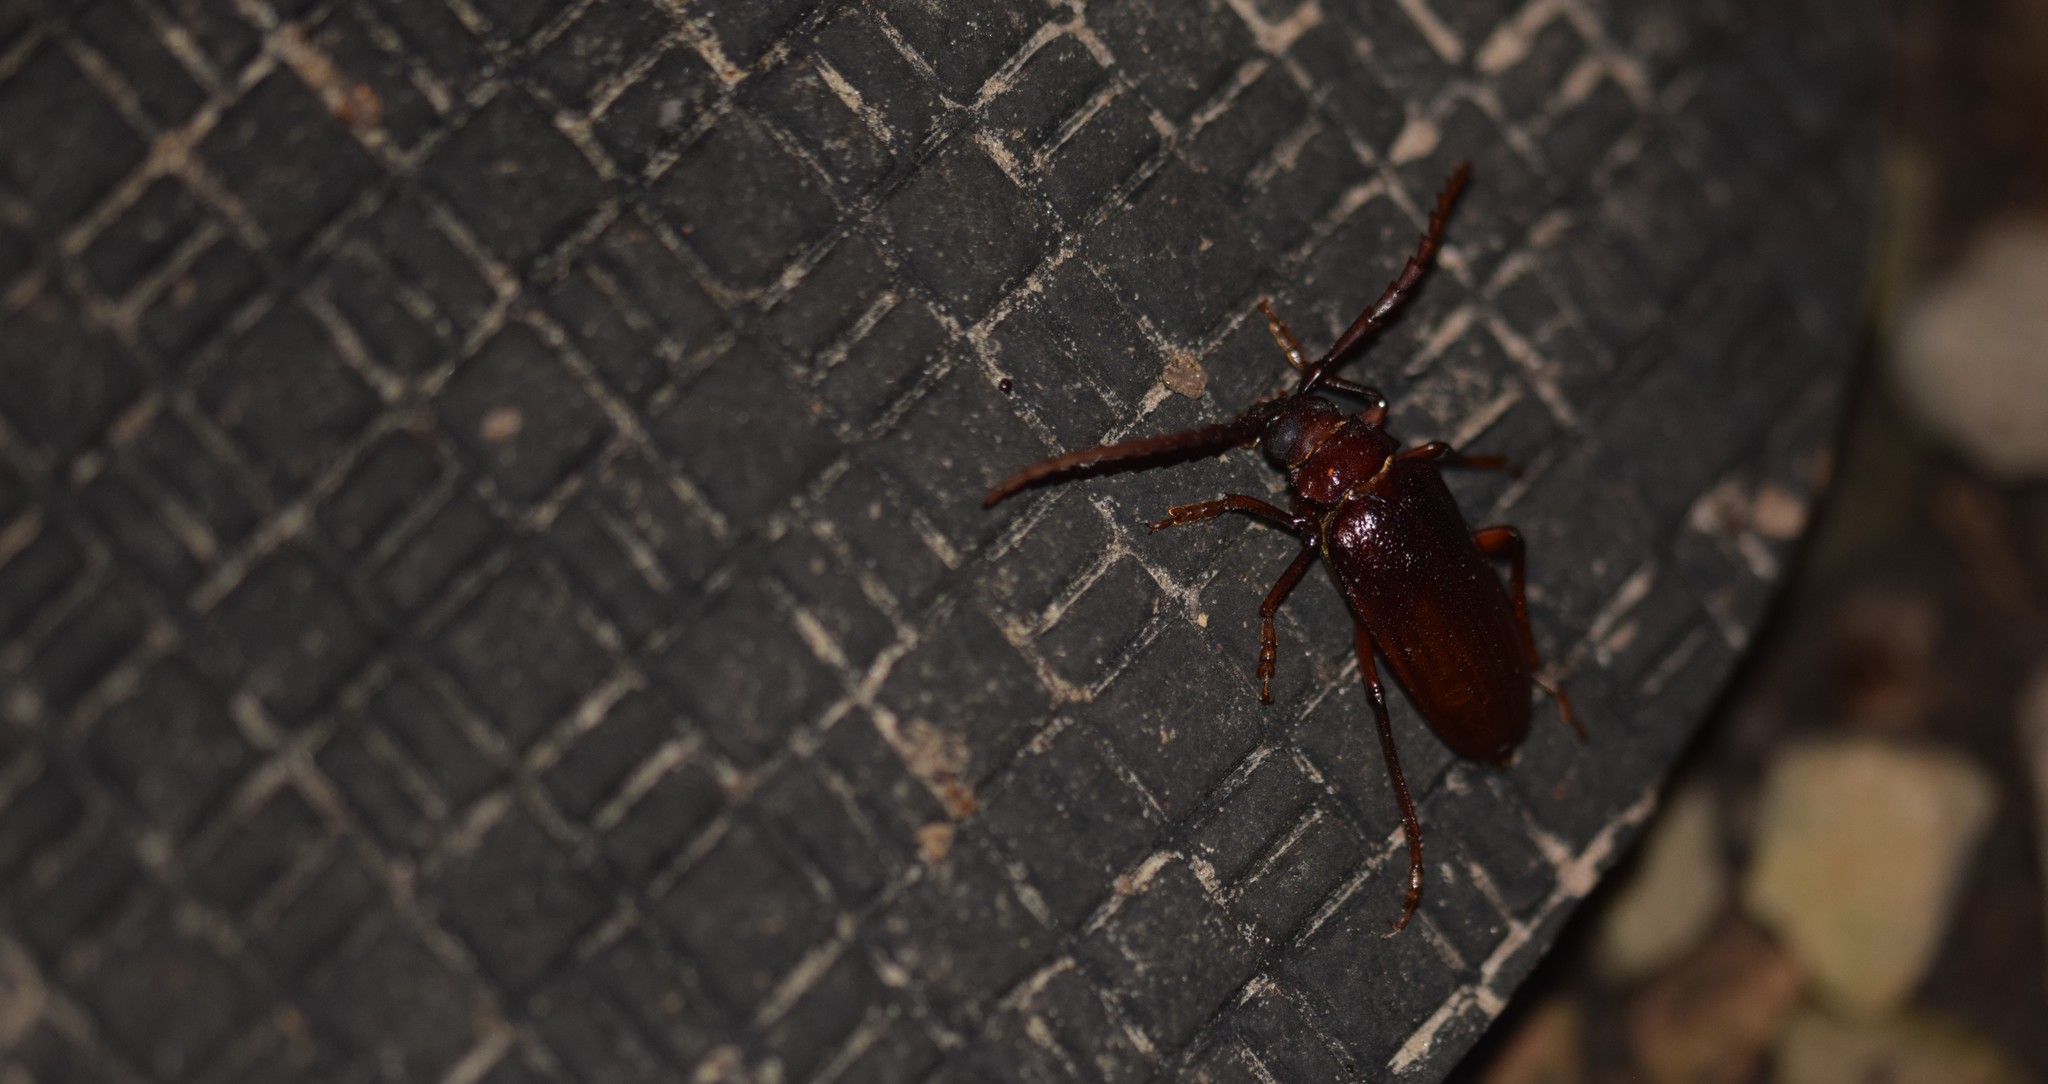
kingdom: Animalia
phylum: Arthropoda
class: Insecta
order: Coleoptera
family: Cerambycidae
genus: Prionus
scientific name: Prionus pocularis
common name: Tooth-necked longhorn beetle
